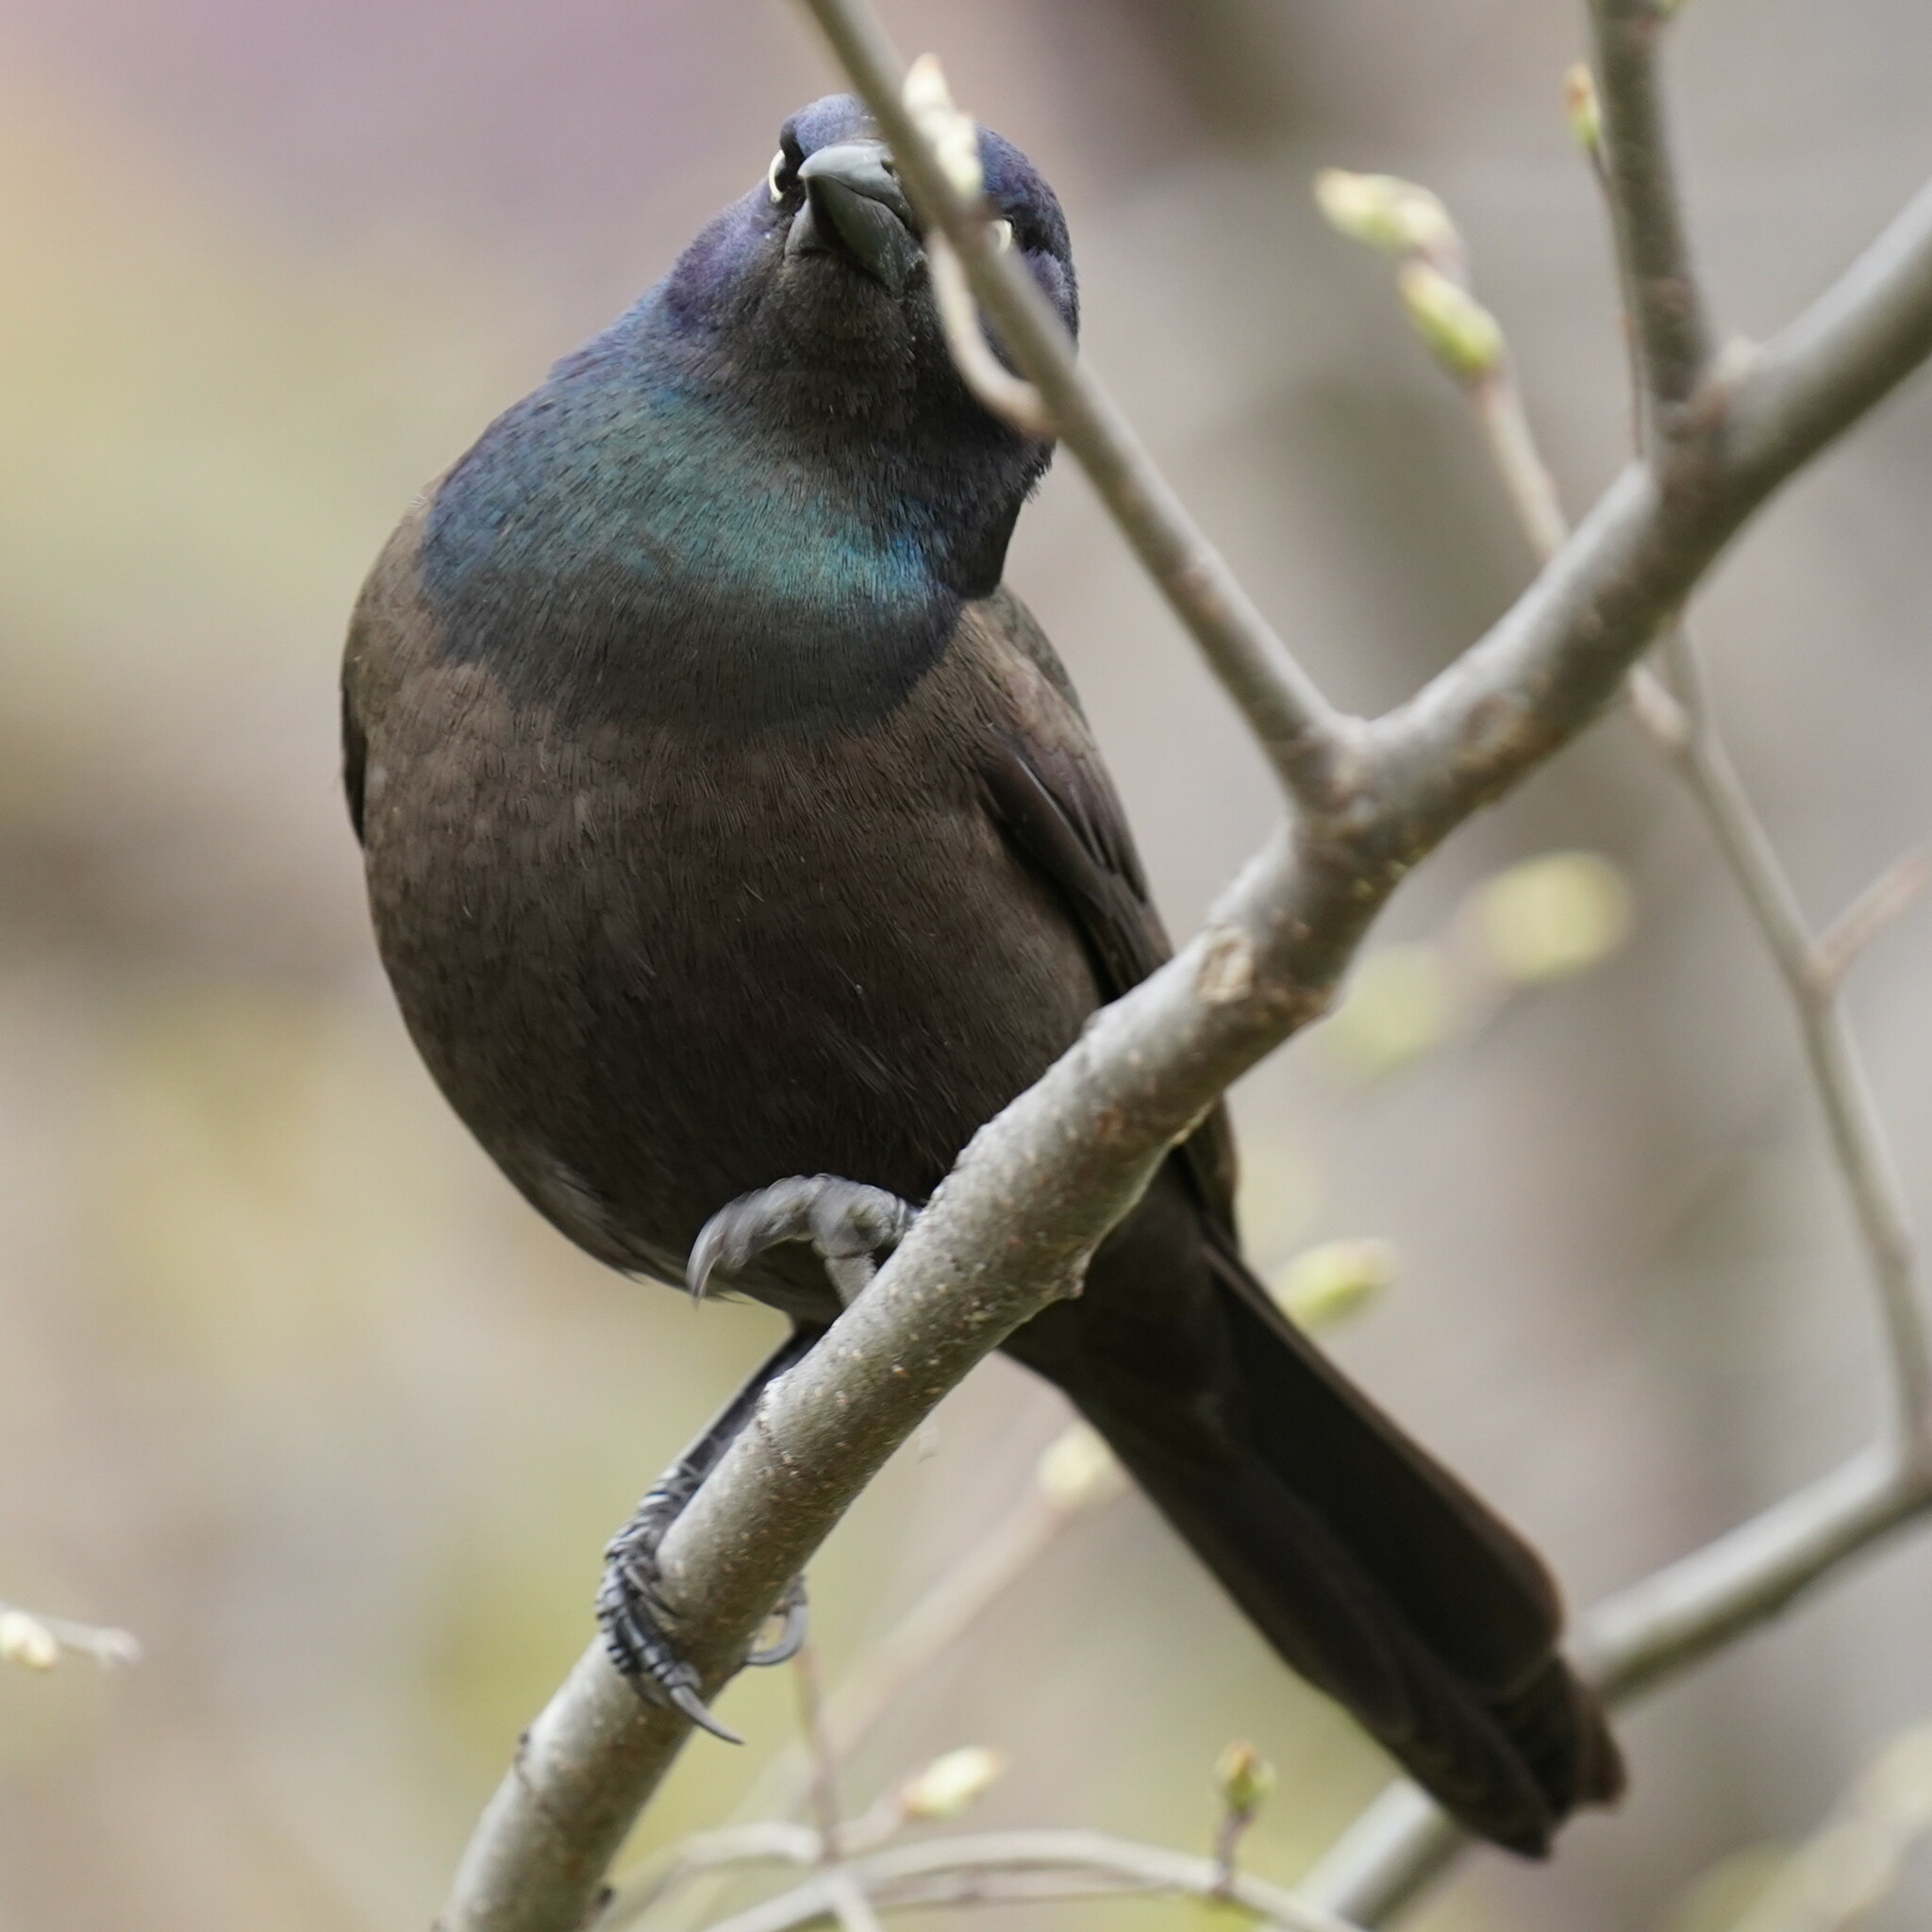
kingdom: Animalia
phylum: Chordata
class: Aves
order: Passeriformes
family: Icteridae
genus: Quiscalus
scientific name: Quiscalus quiscula
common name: Common grackle
